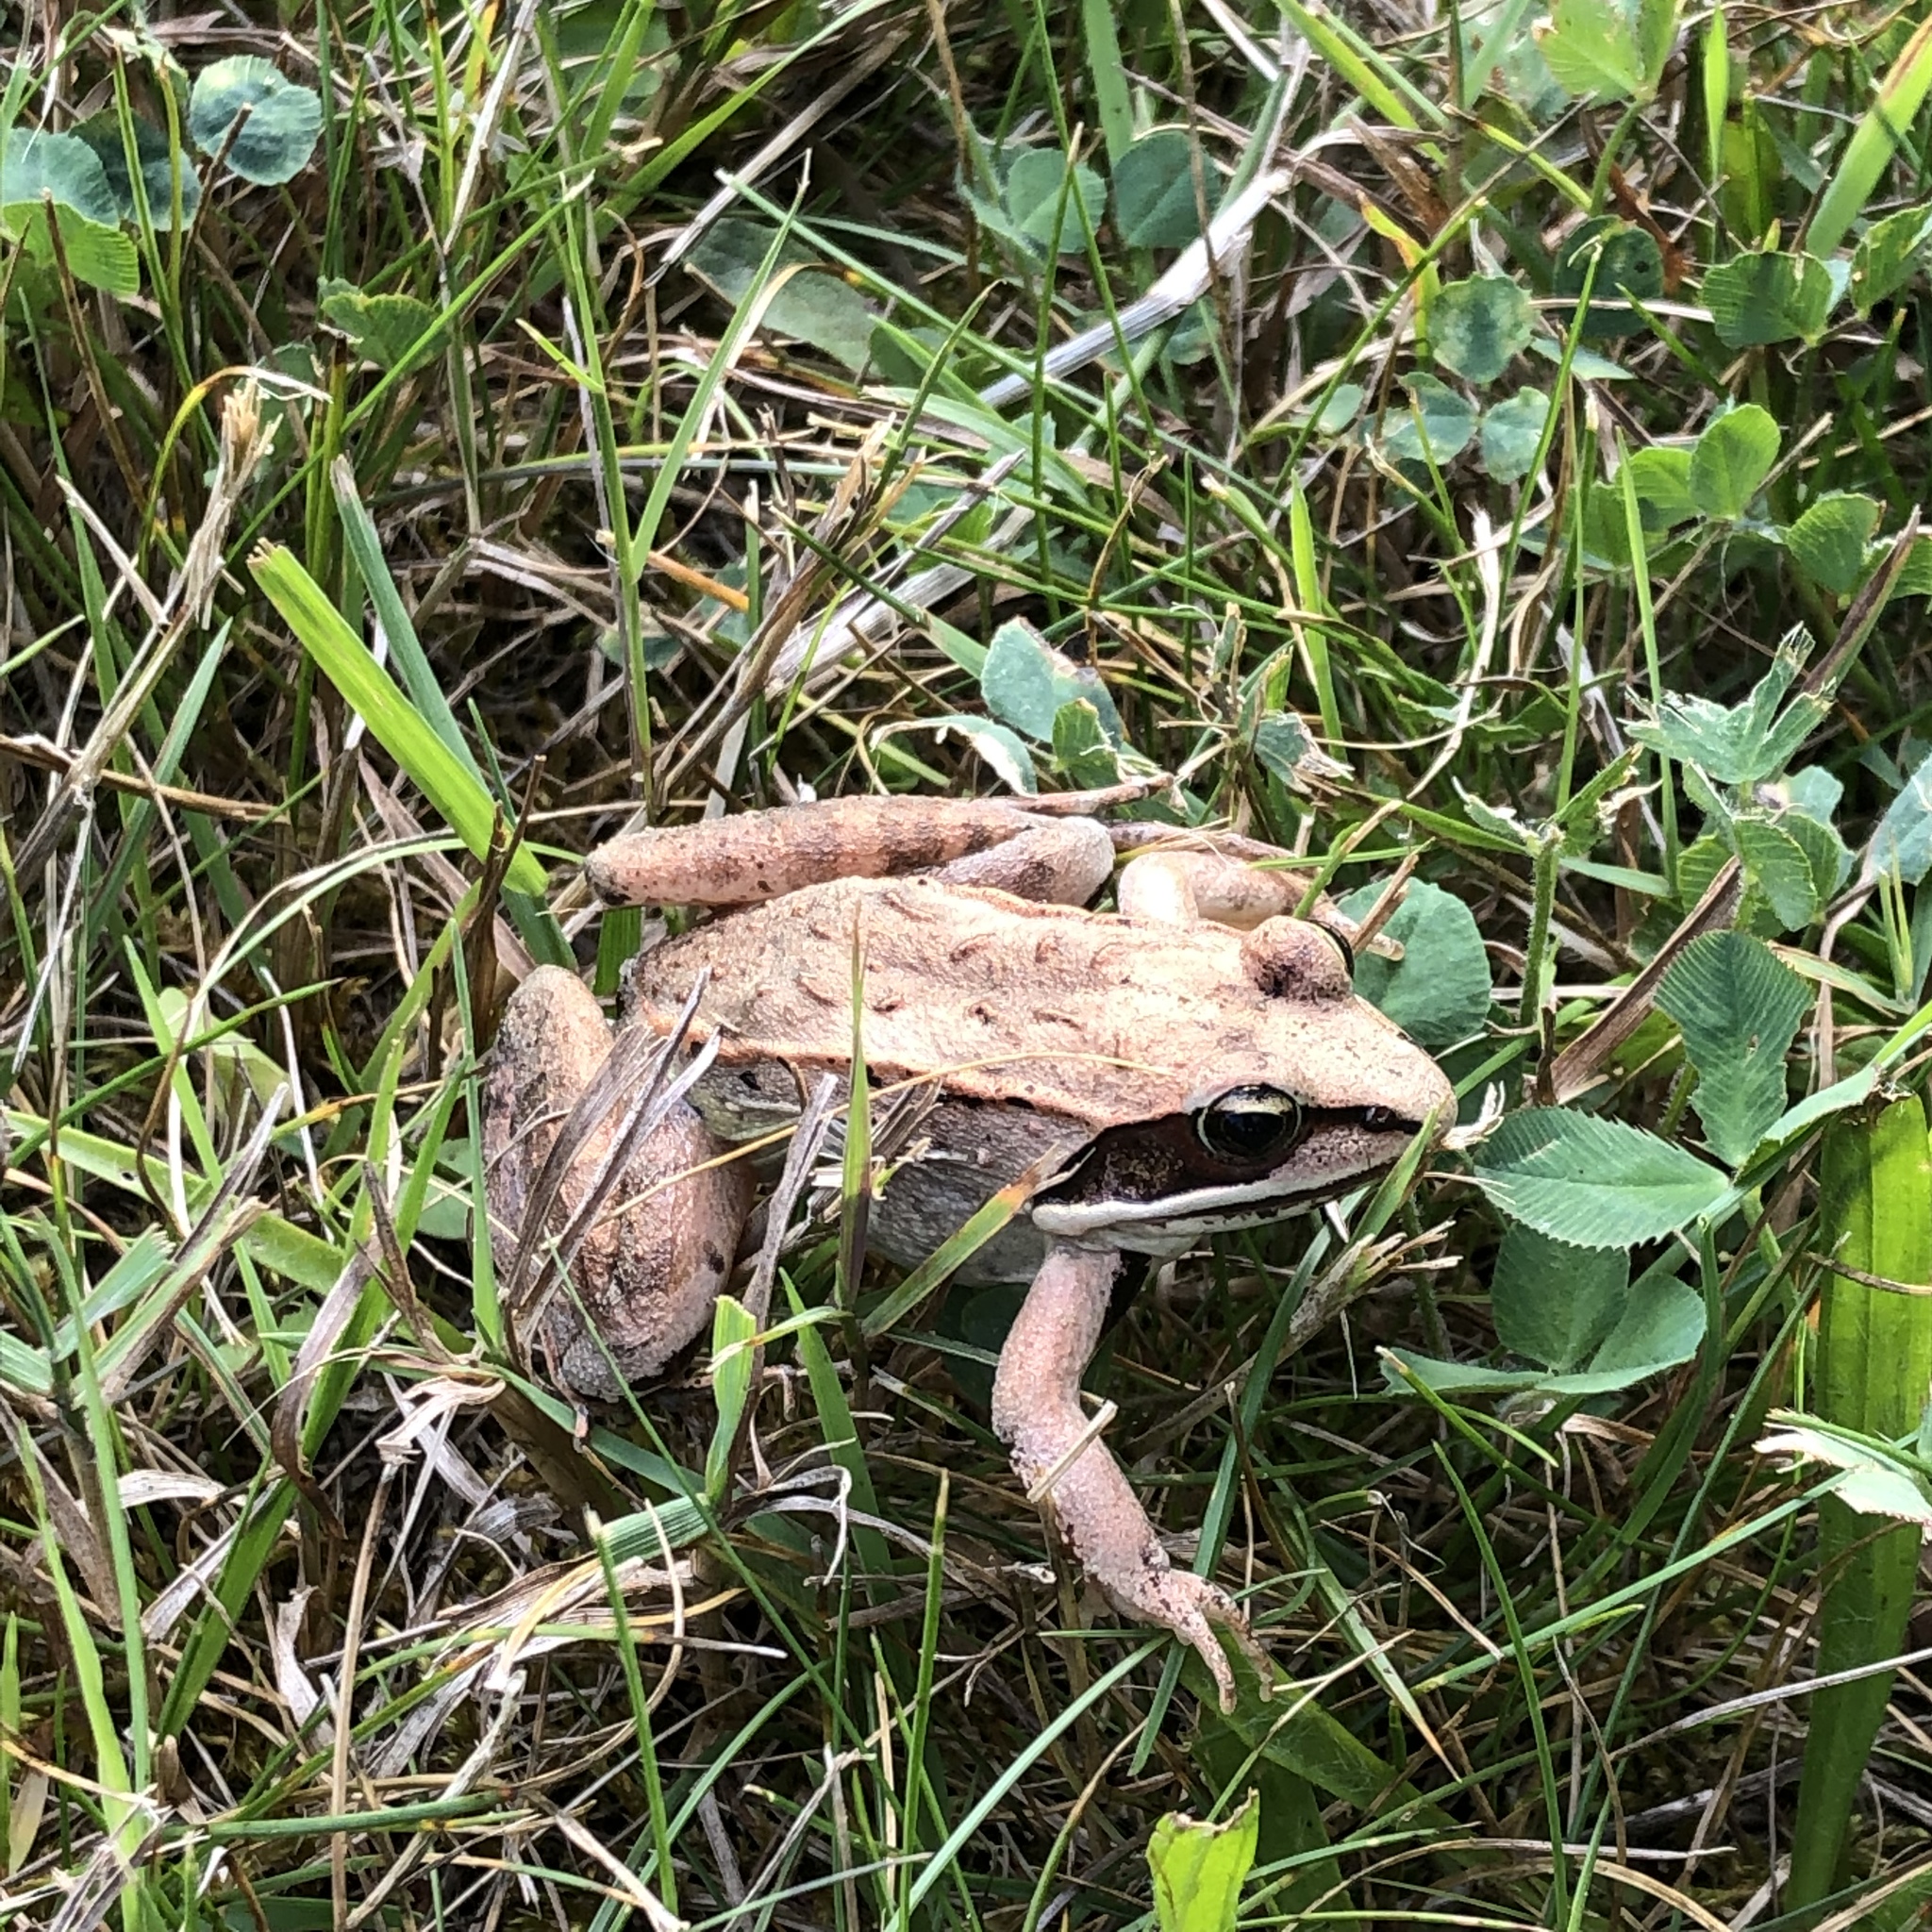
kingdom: Animalia
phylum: Chordata
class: Amphibia
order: Anura
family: Ranidae
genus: Lithobates
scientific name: Lithobates sylvaticus
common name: Wood frog
